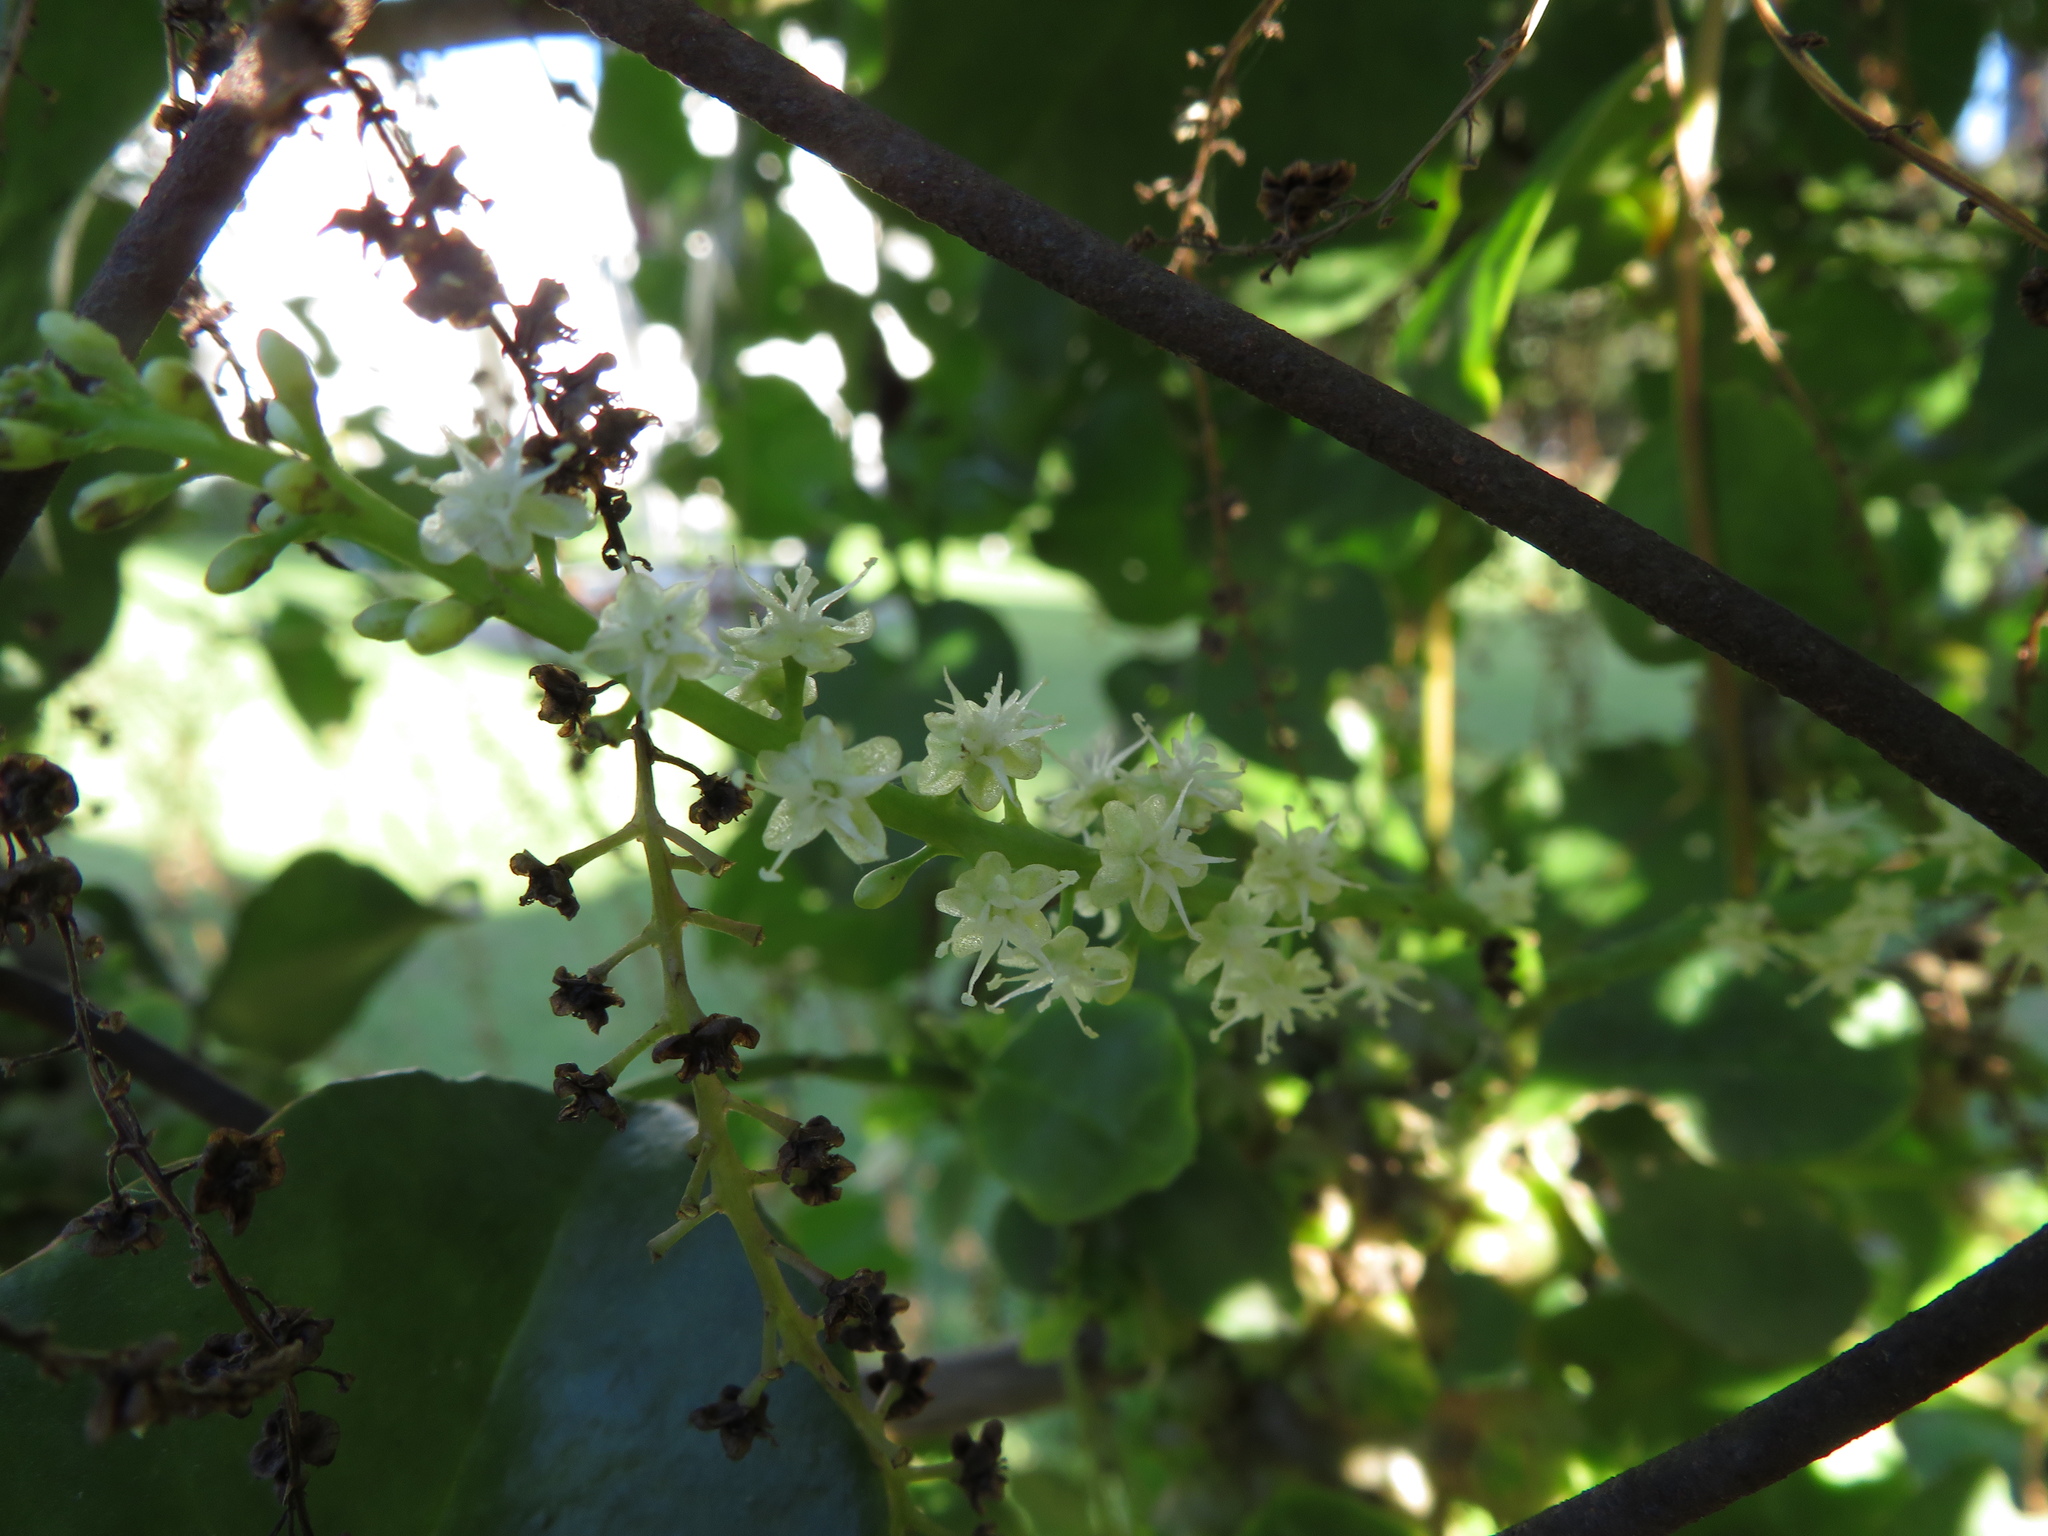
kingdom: Plantae
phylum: Tracheophyta
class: Magnoliopsida
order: Caryophyllales
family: Basellaceae
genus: Anredera
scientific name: Anredera cordifolia
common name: Heartleaf madeiravine
